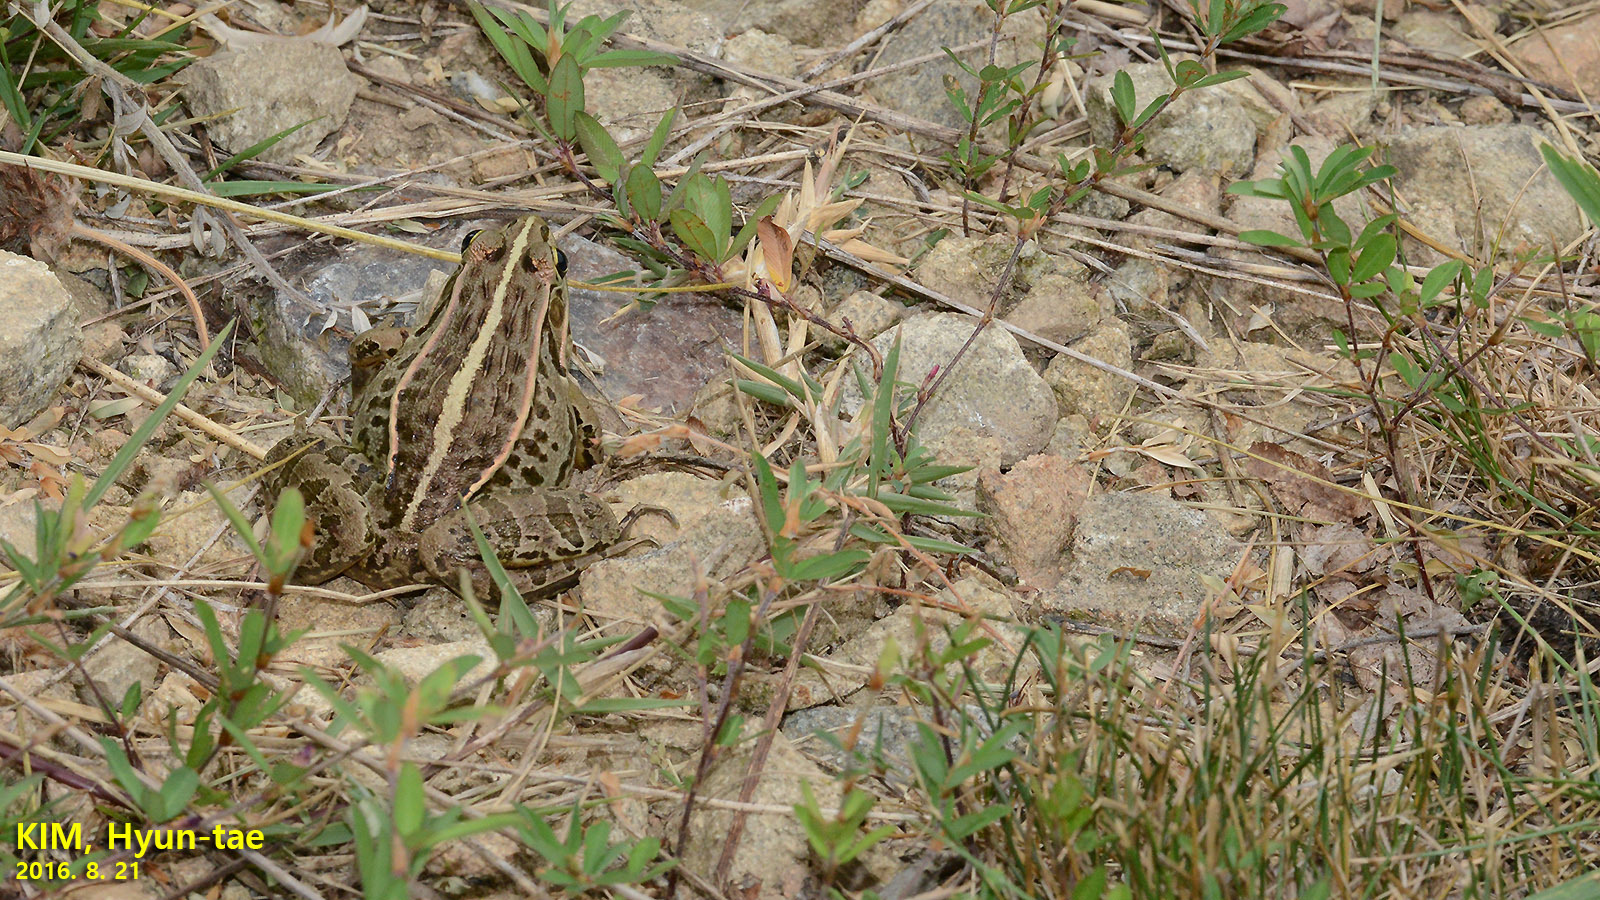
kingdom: Animalia
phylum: Chordata
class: Amphibia
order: Anura
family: Ranidae
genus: Pelophylax
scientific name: Pelophylax nigromaculatus
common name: Black-spotted pond frog
